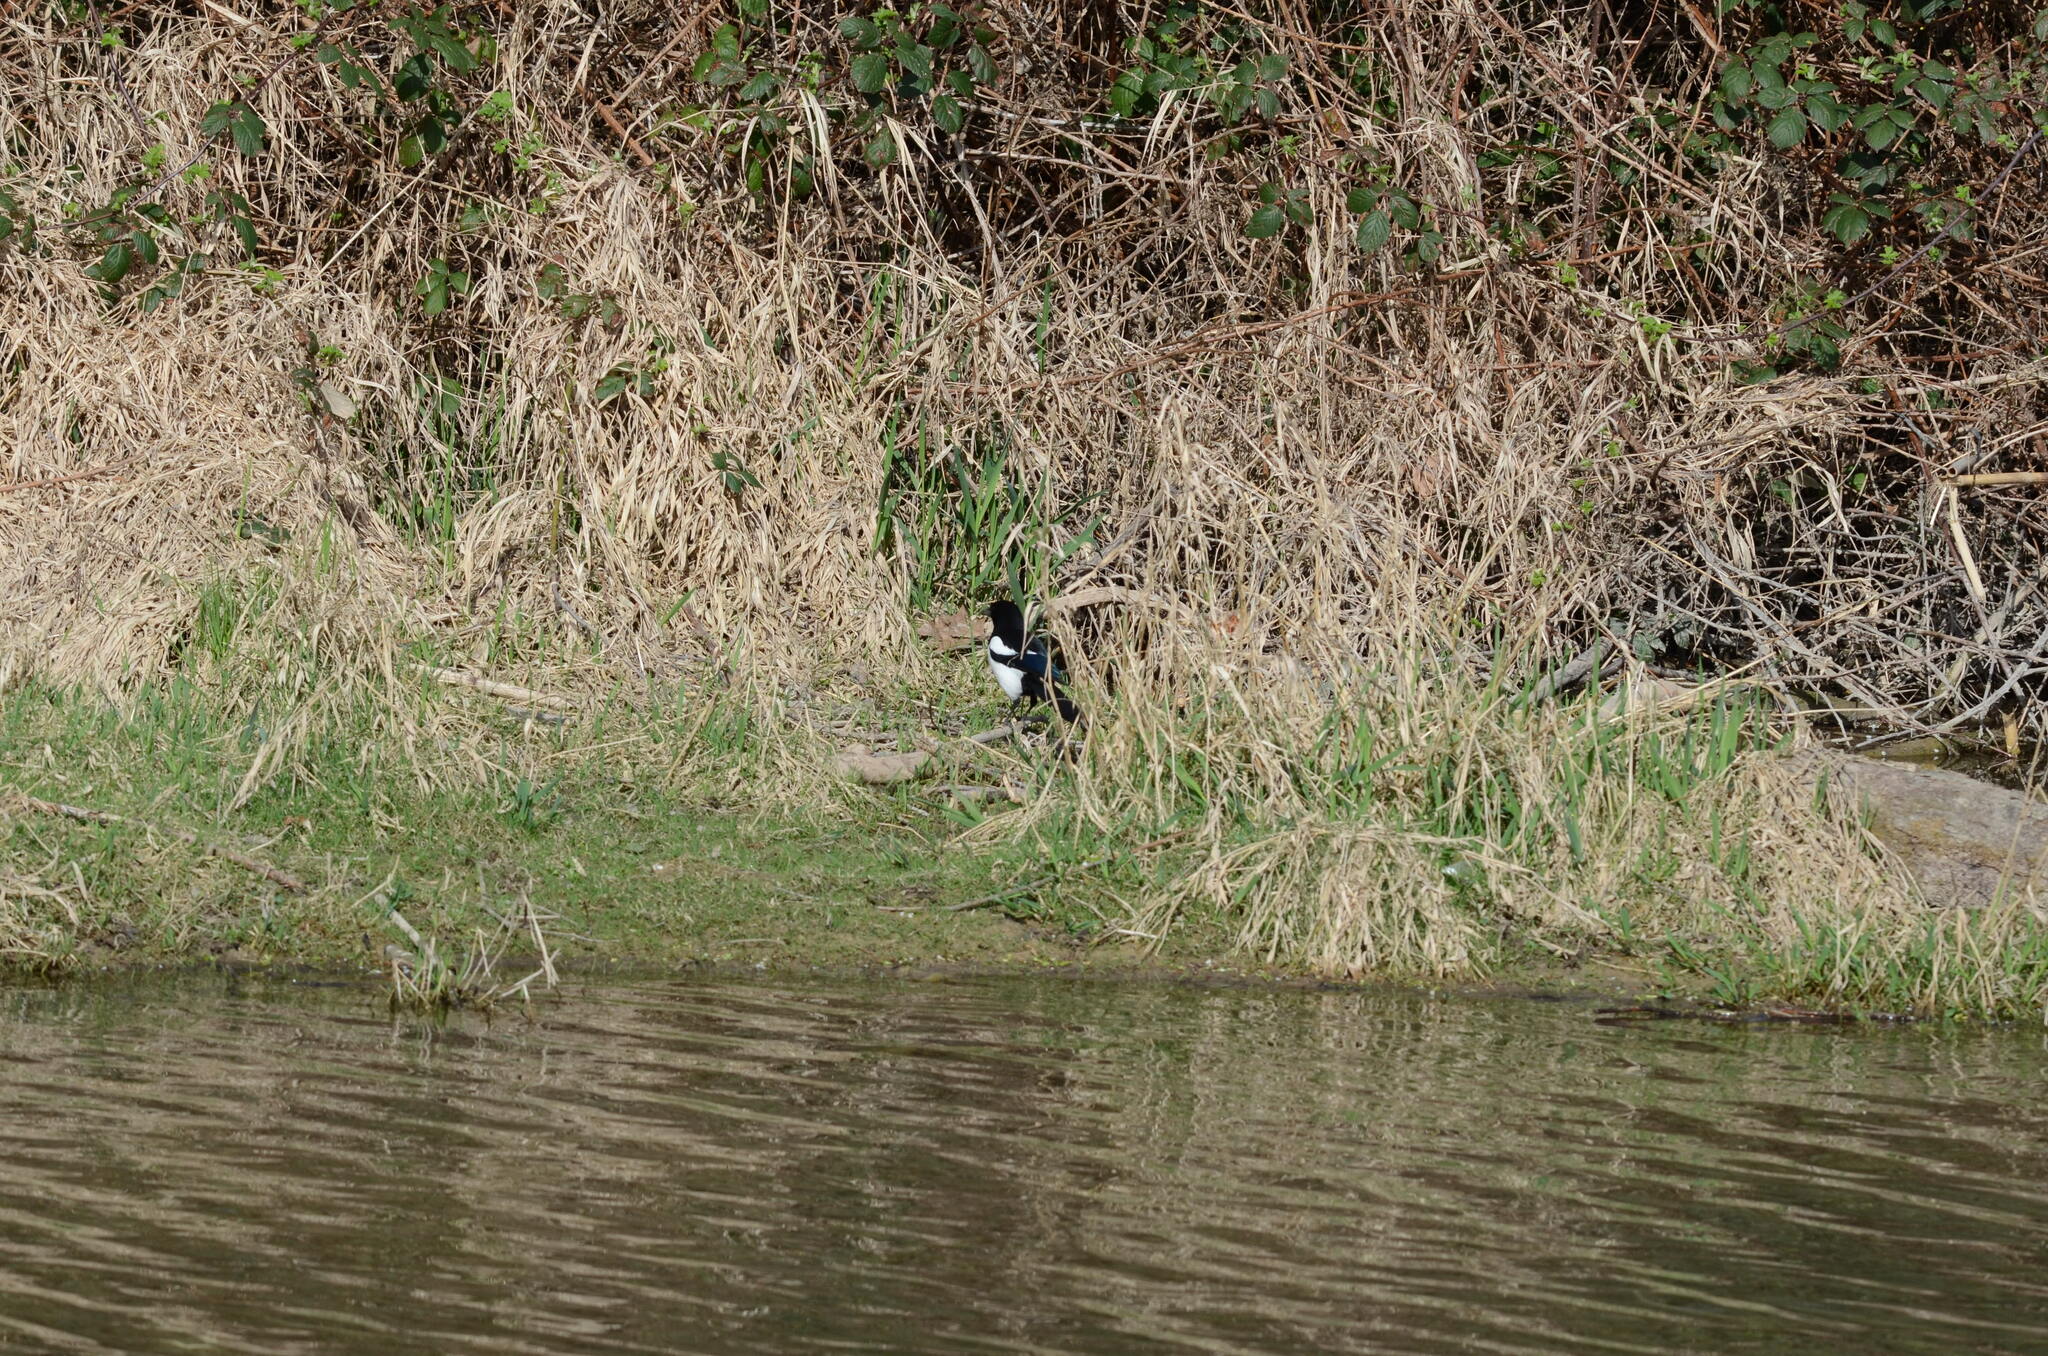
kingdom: Animalia
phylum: Chordata
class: Aves
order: Passeriformes
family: Corvidae
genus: Pica
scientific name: Pica pica
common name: Eurasian magpie
